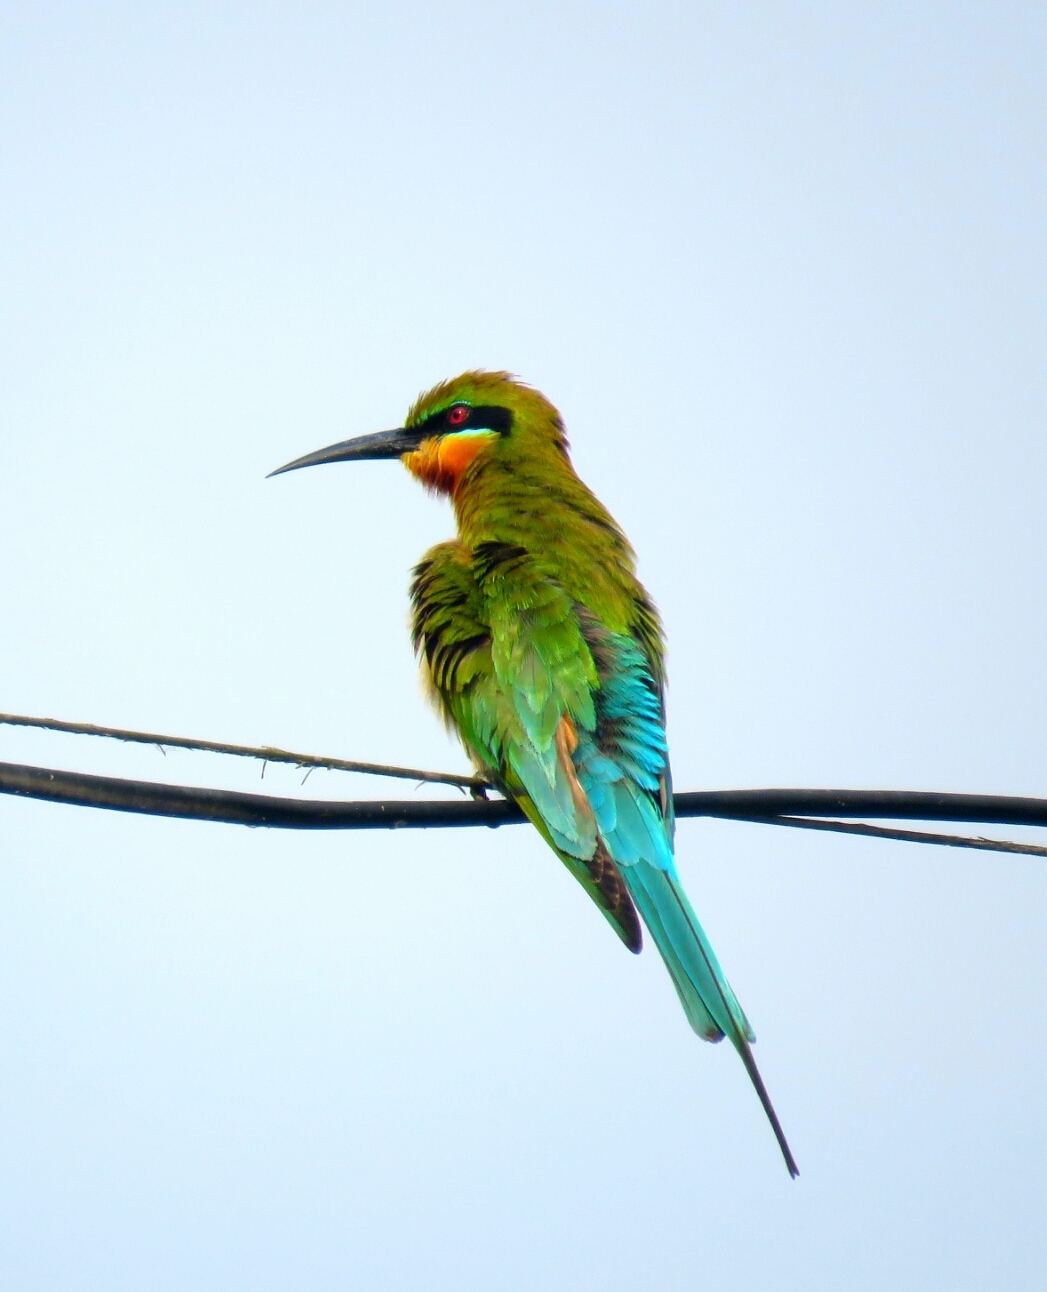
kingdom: Animalia
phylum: Chordata
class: Aves
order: Coraciiformes
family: Meropidae
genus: Merops
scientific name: Merops philippinus
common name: Blue-tailed bee-eater
